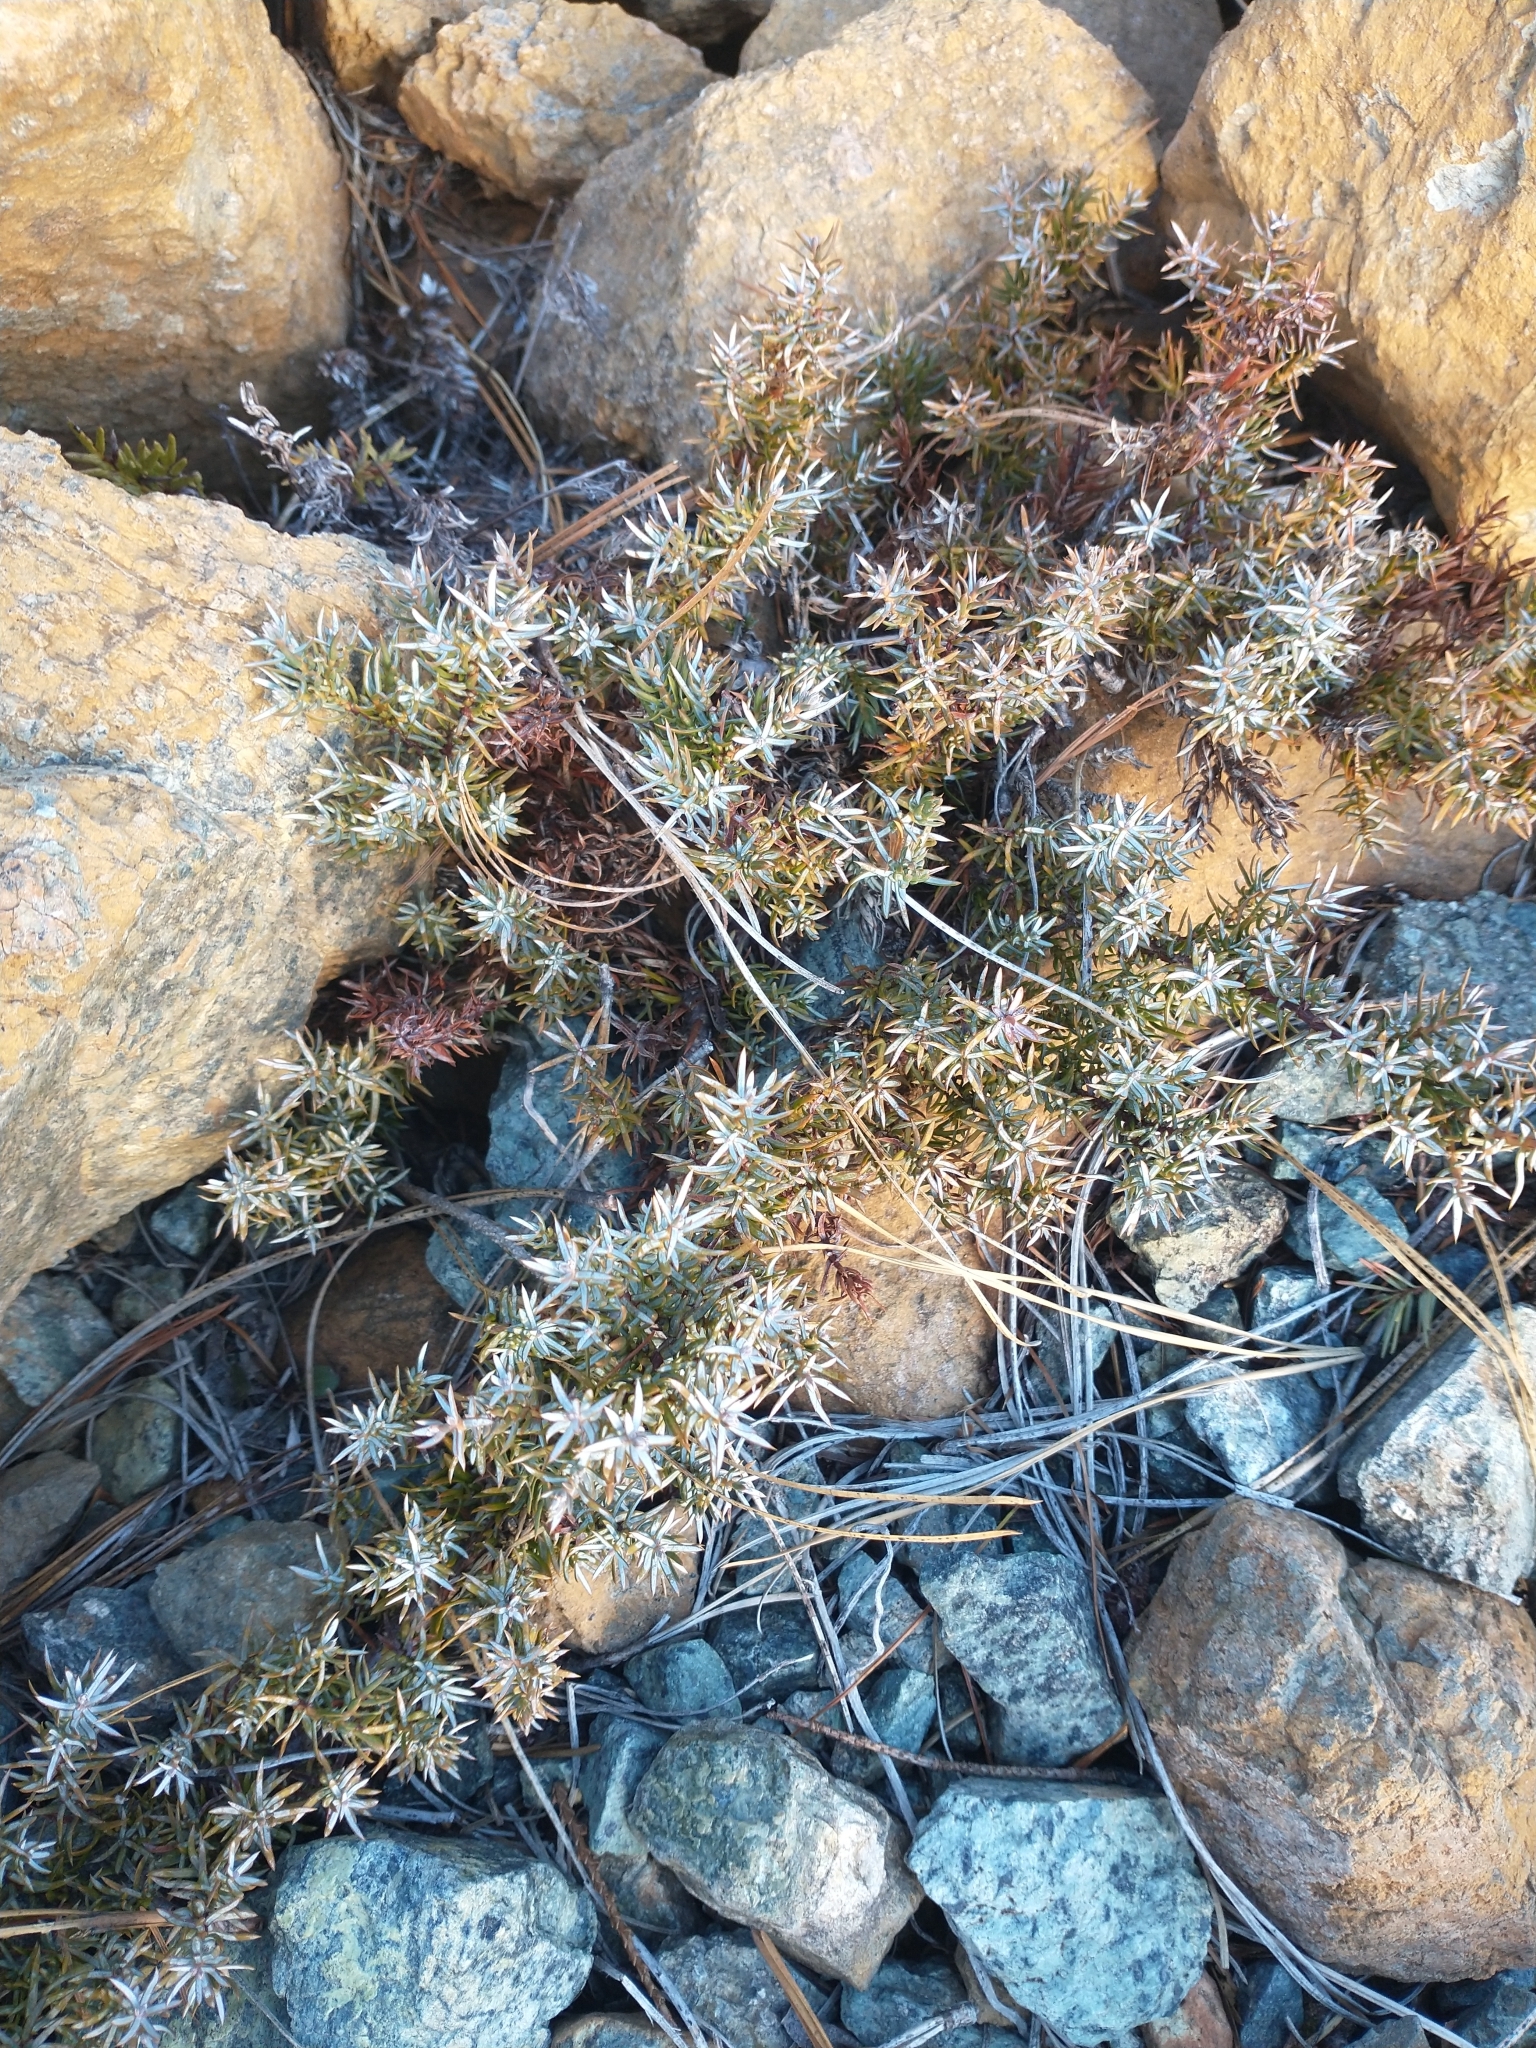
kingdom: Plantae
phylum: Tracheophyta
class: Pinopsida
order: Pinales
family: Cupressaceae
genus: Juniperus
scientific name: Juniperus communis
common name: Common juniper
